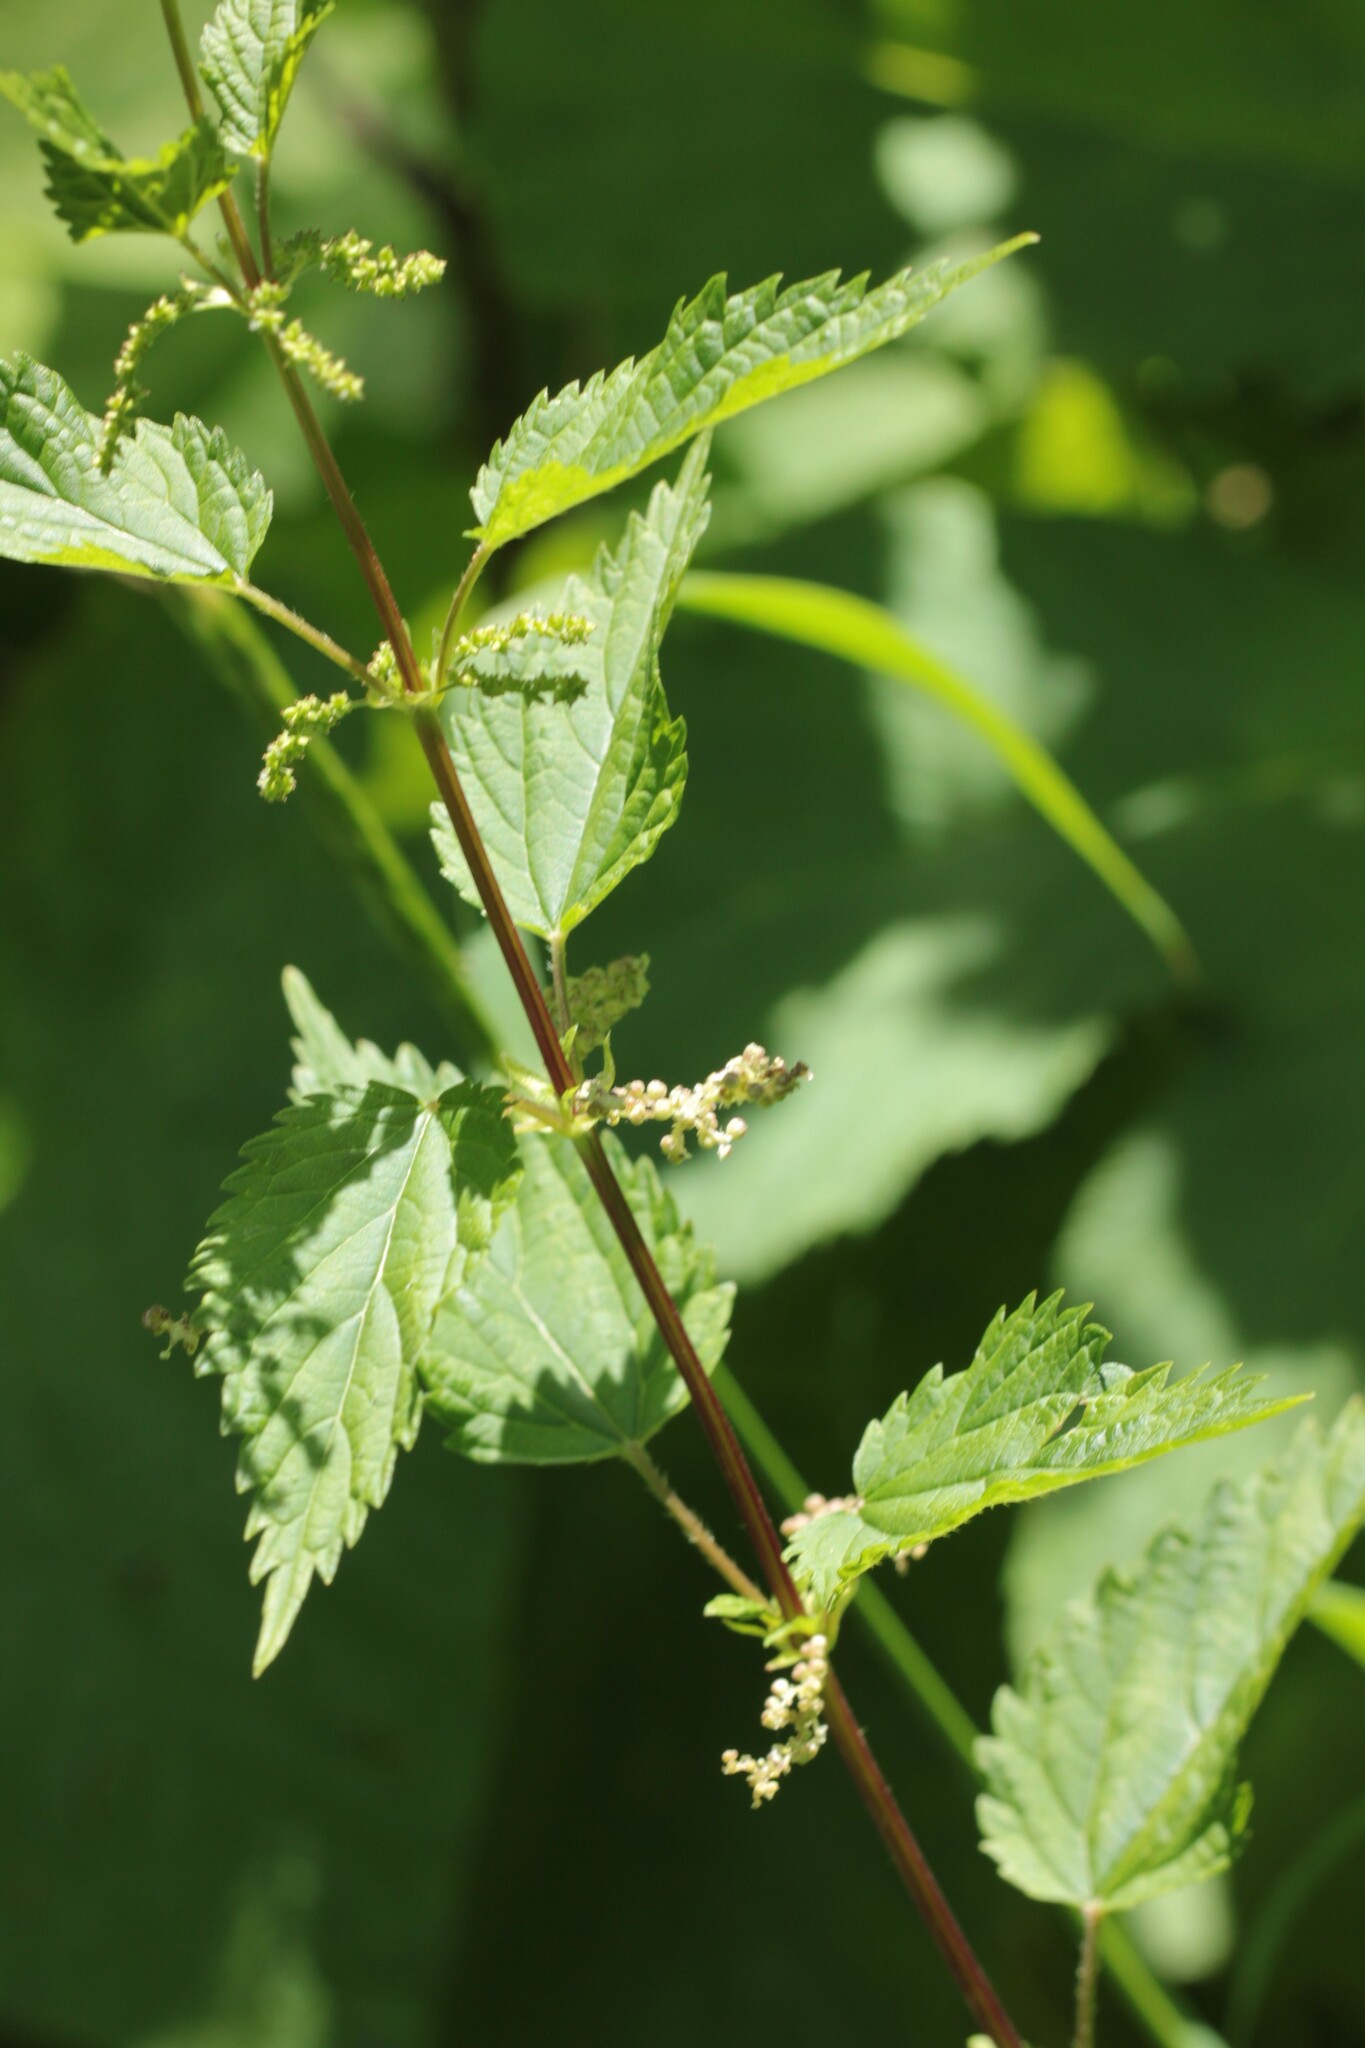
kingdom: Plantae
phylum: Tracheophyta
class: Magnoliopsida
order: Rosales
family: Urticaceae
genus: Urtica
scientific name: Urtica gracilis
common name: Slender stinging nettle
